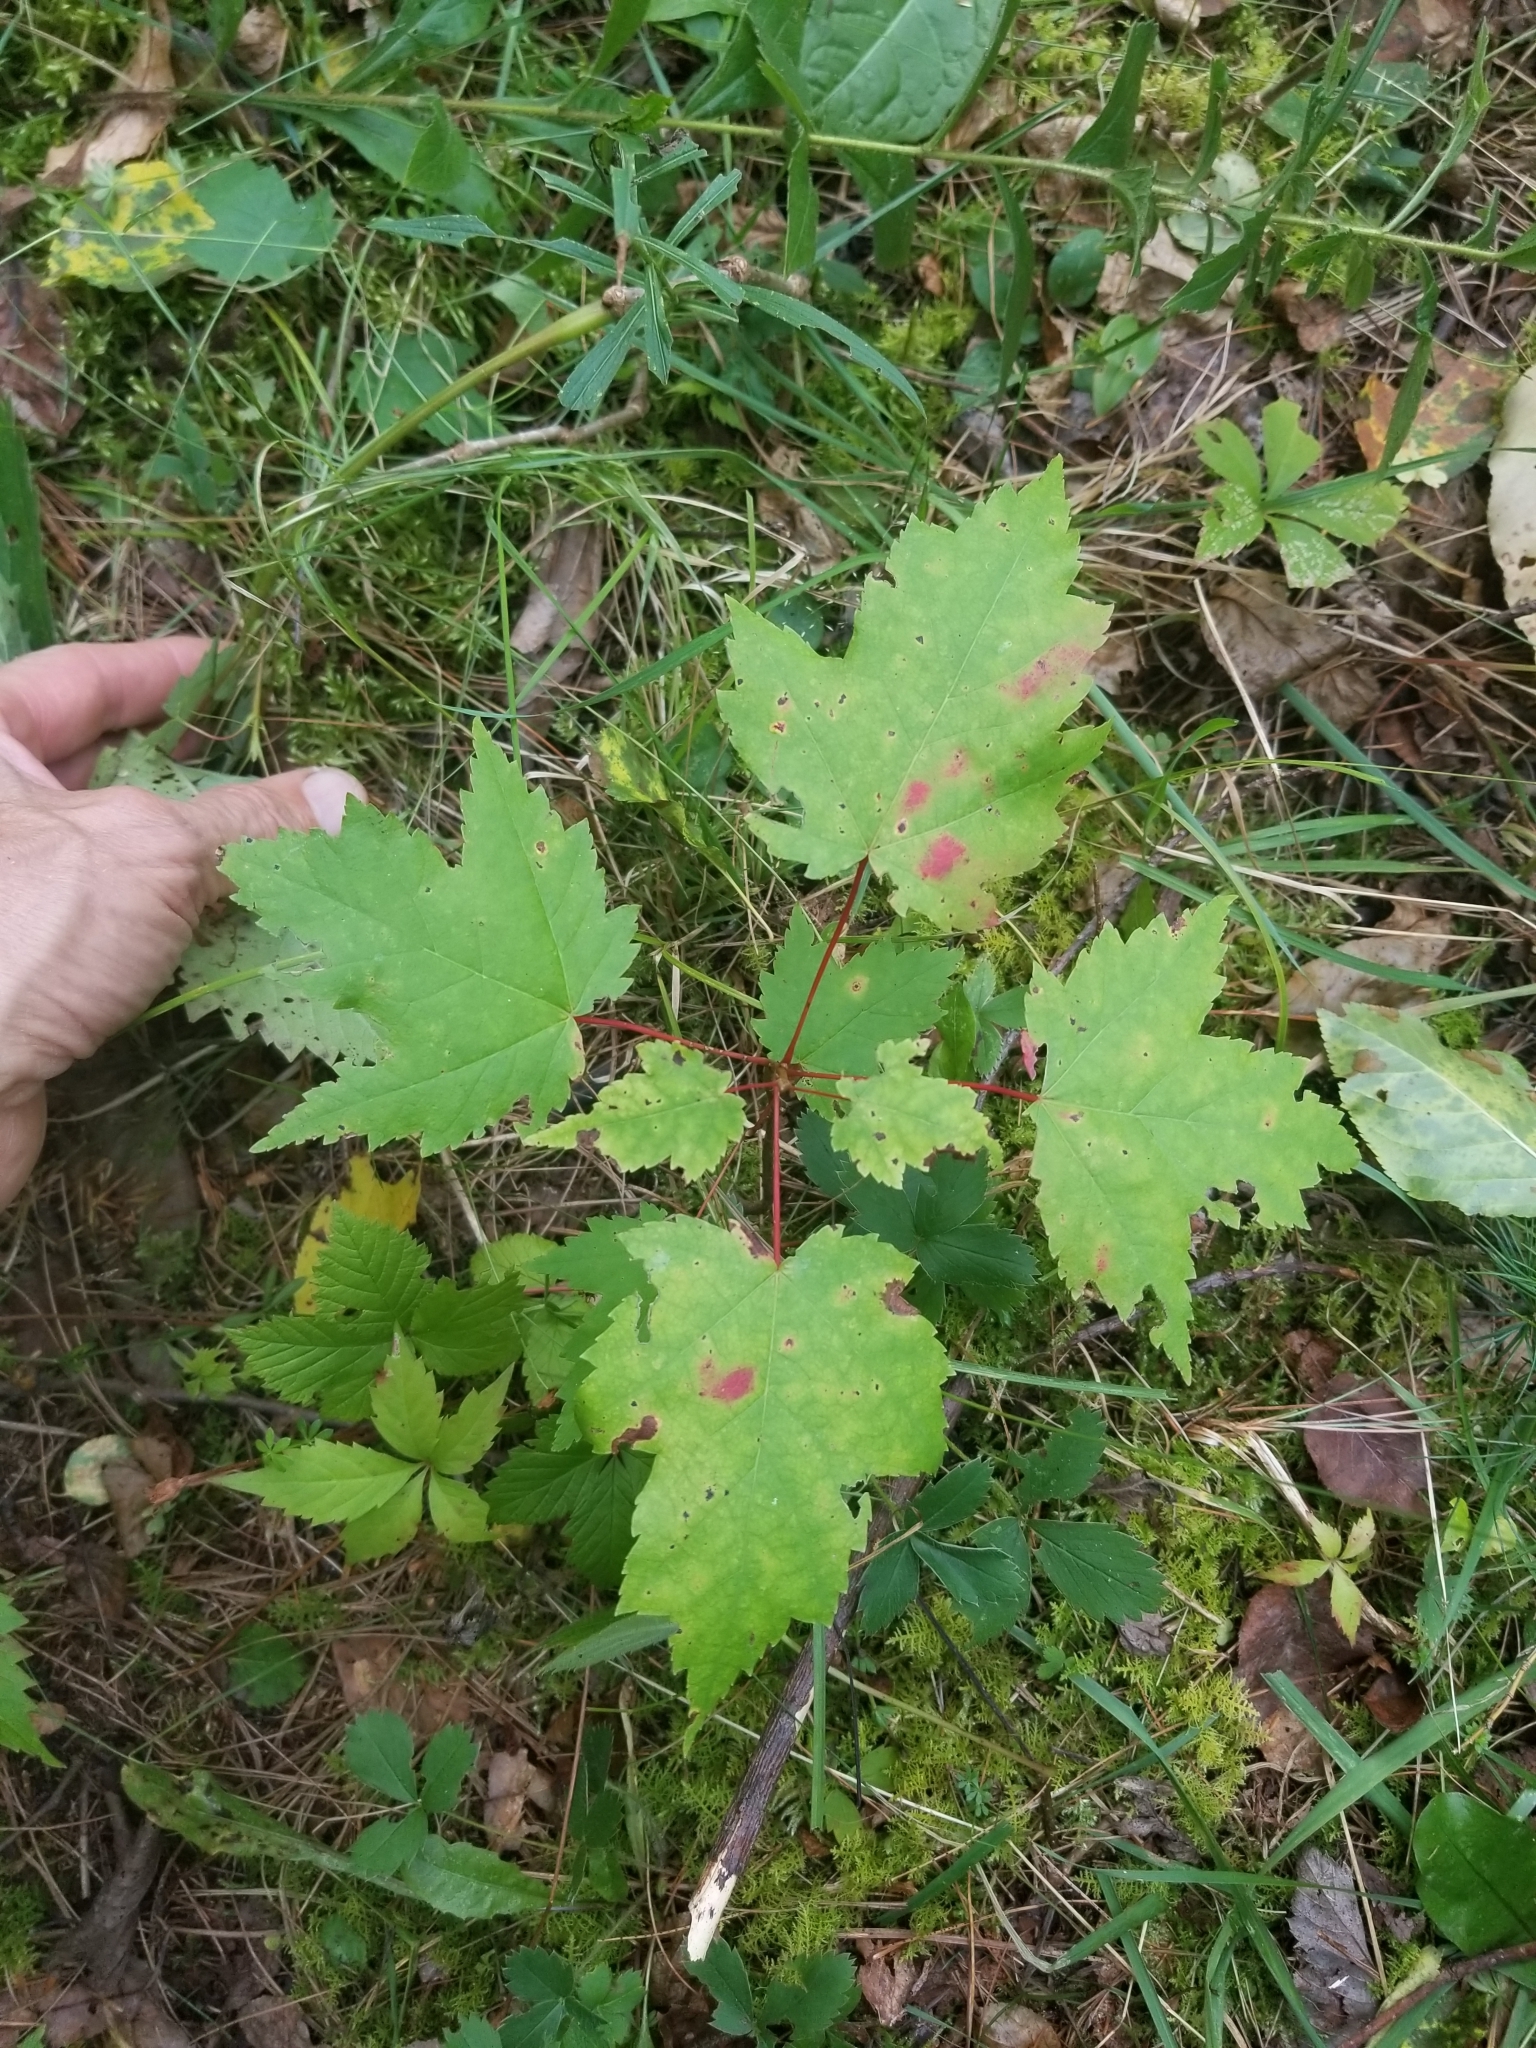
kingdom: Plantae
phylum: Tracheophyta
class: Magnoliopsida
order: Sapindales
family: Sapindaceae
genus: Acer
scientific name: Acer rubrum
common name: Red maple
